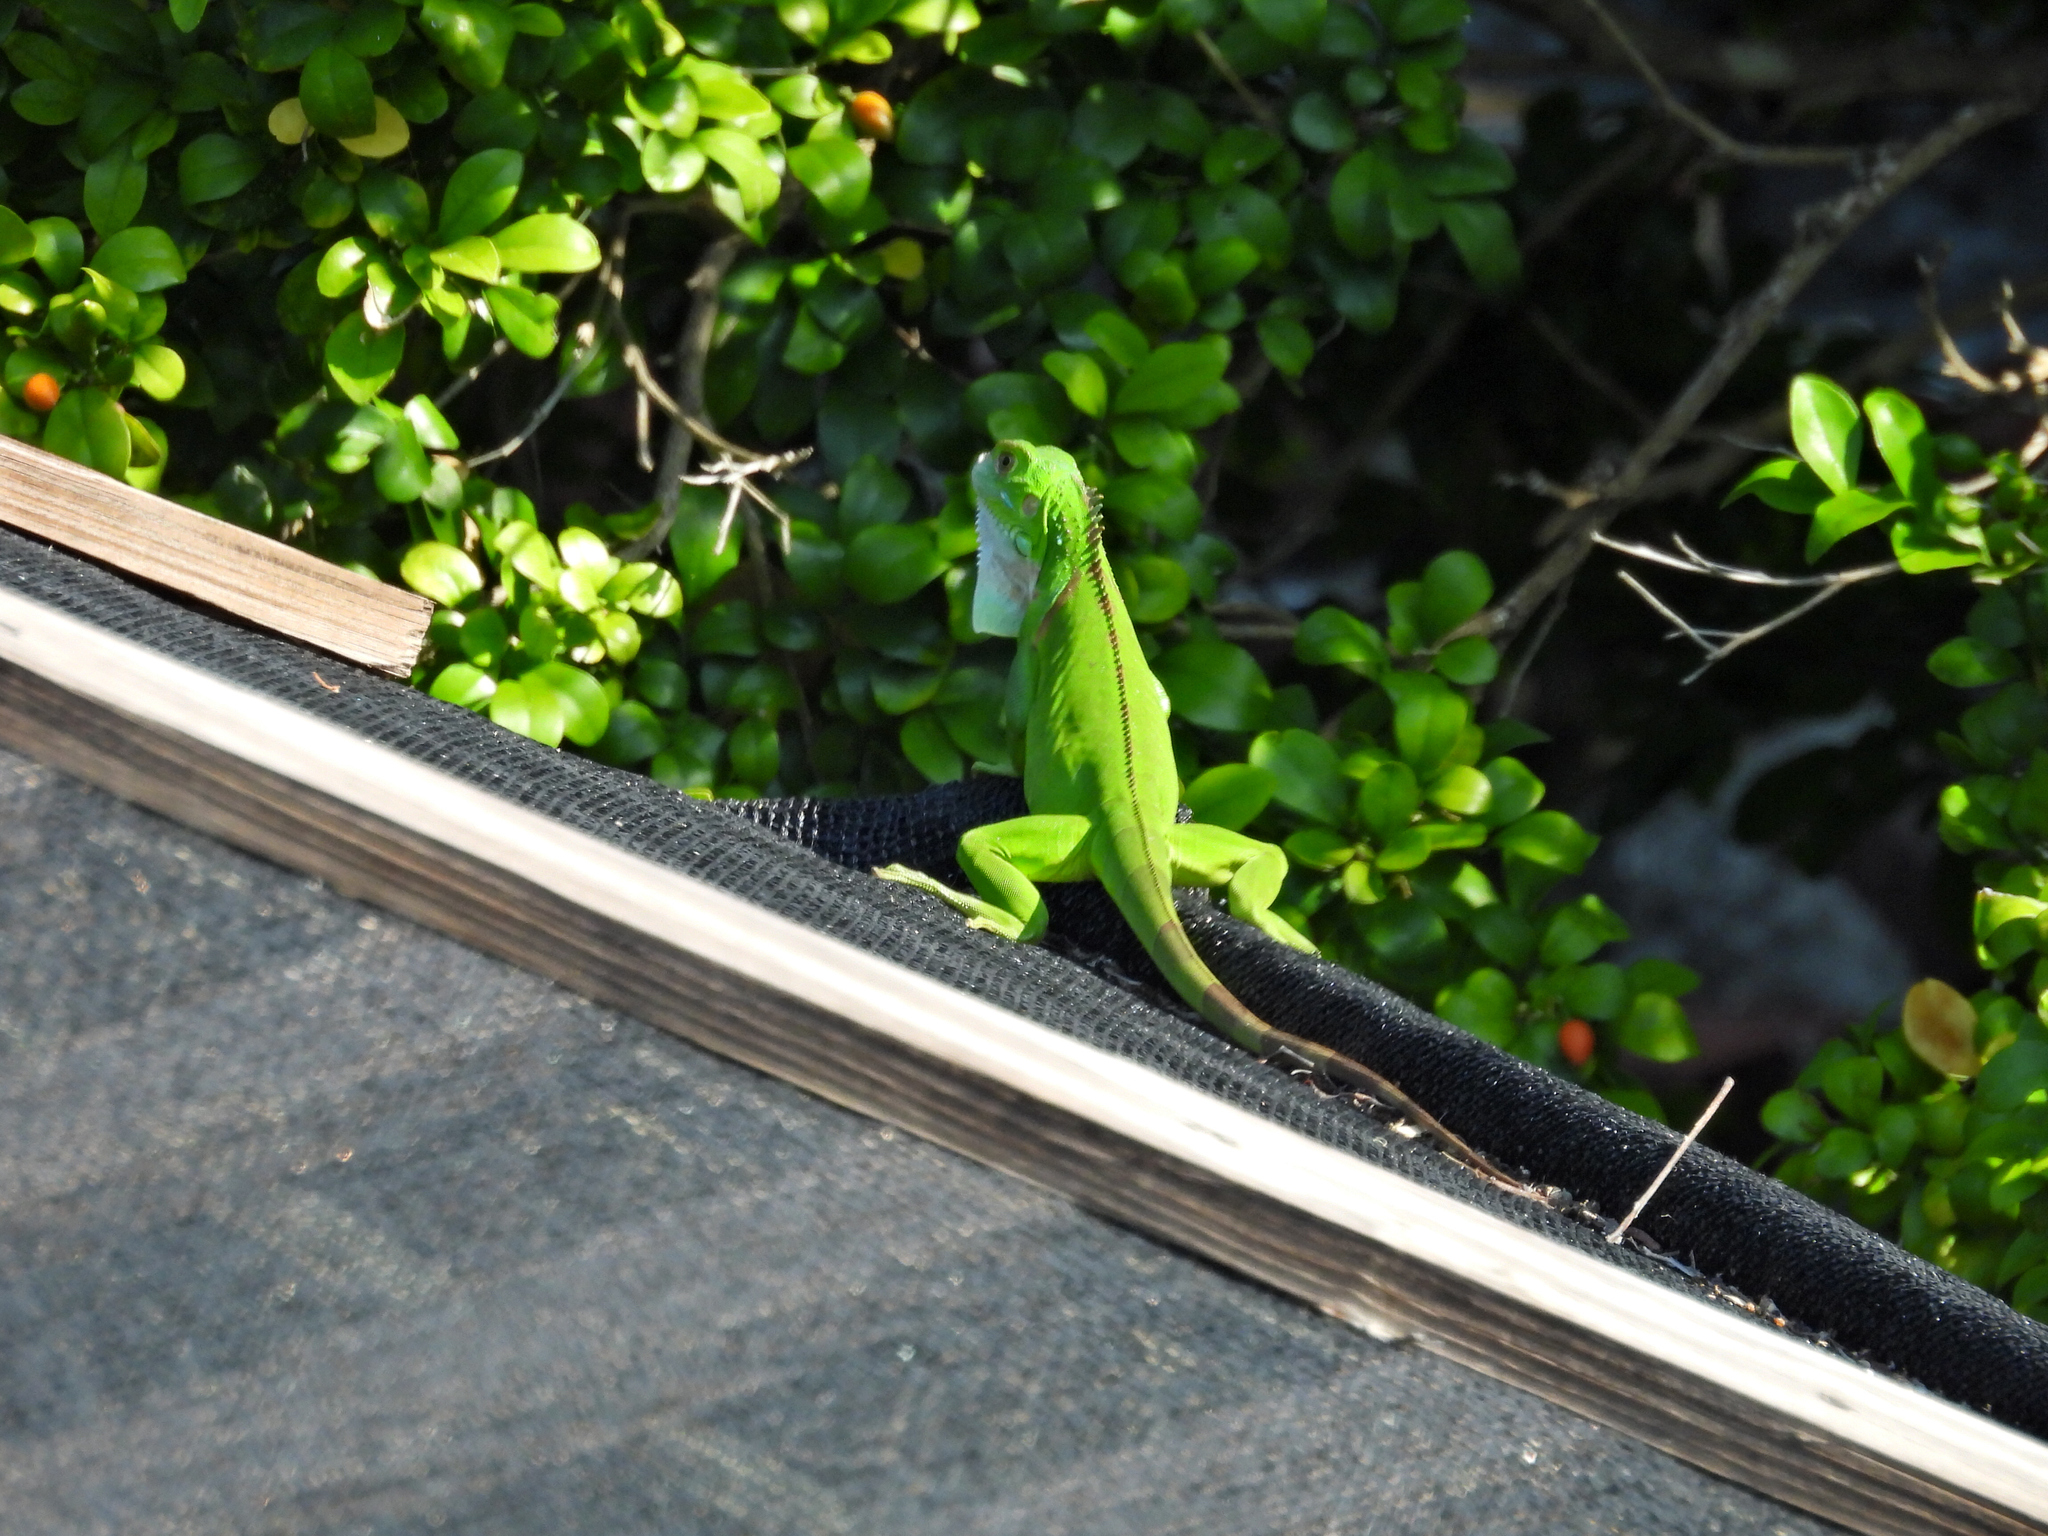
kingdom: Animalia
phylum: Chordata
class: Squamata
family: Iguanidae
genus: Iguana
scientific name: Iguana iguana
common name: Green iguana
